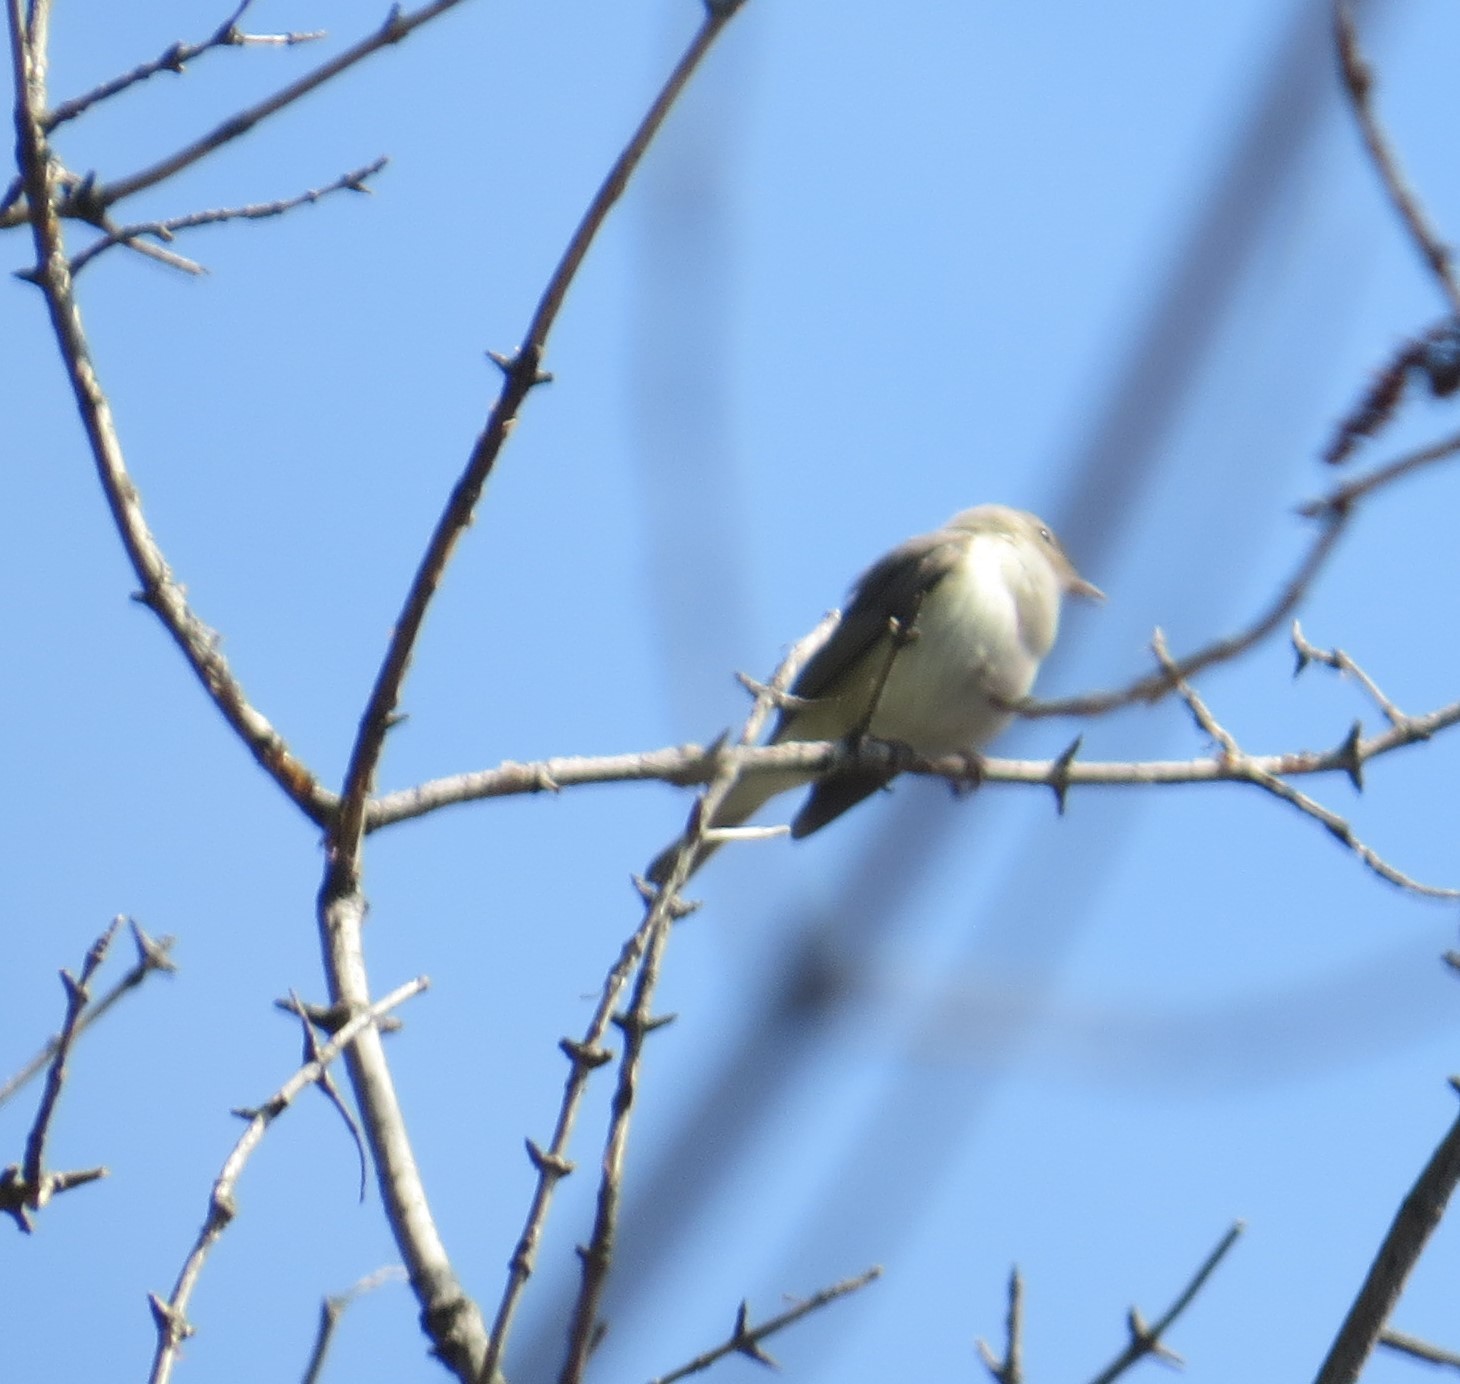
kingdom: Animalia
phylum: Chordata
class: Aves
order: Passeriformes
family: Vireonidae
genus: Vireo
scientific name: Vireo gilvus
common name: Warbling vireo
